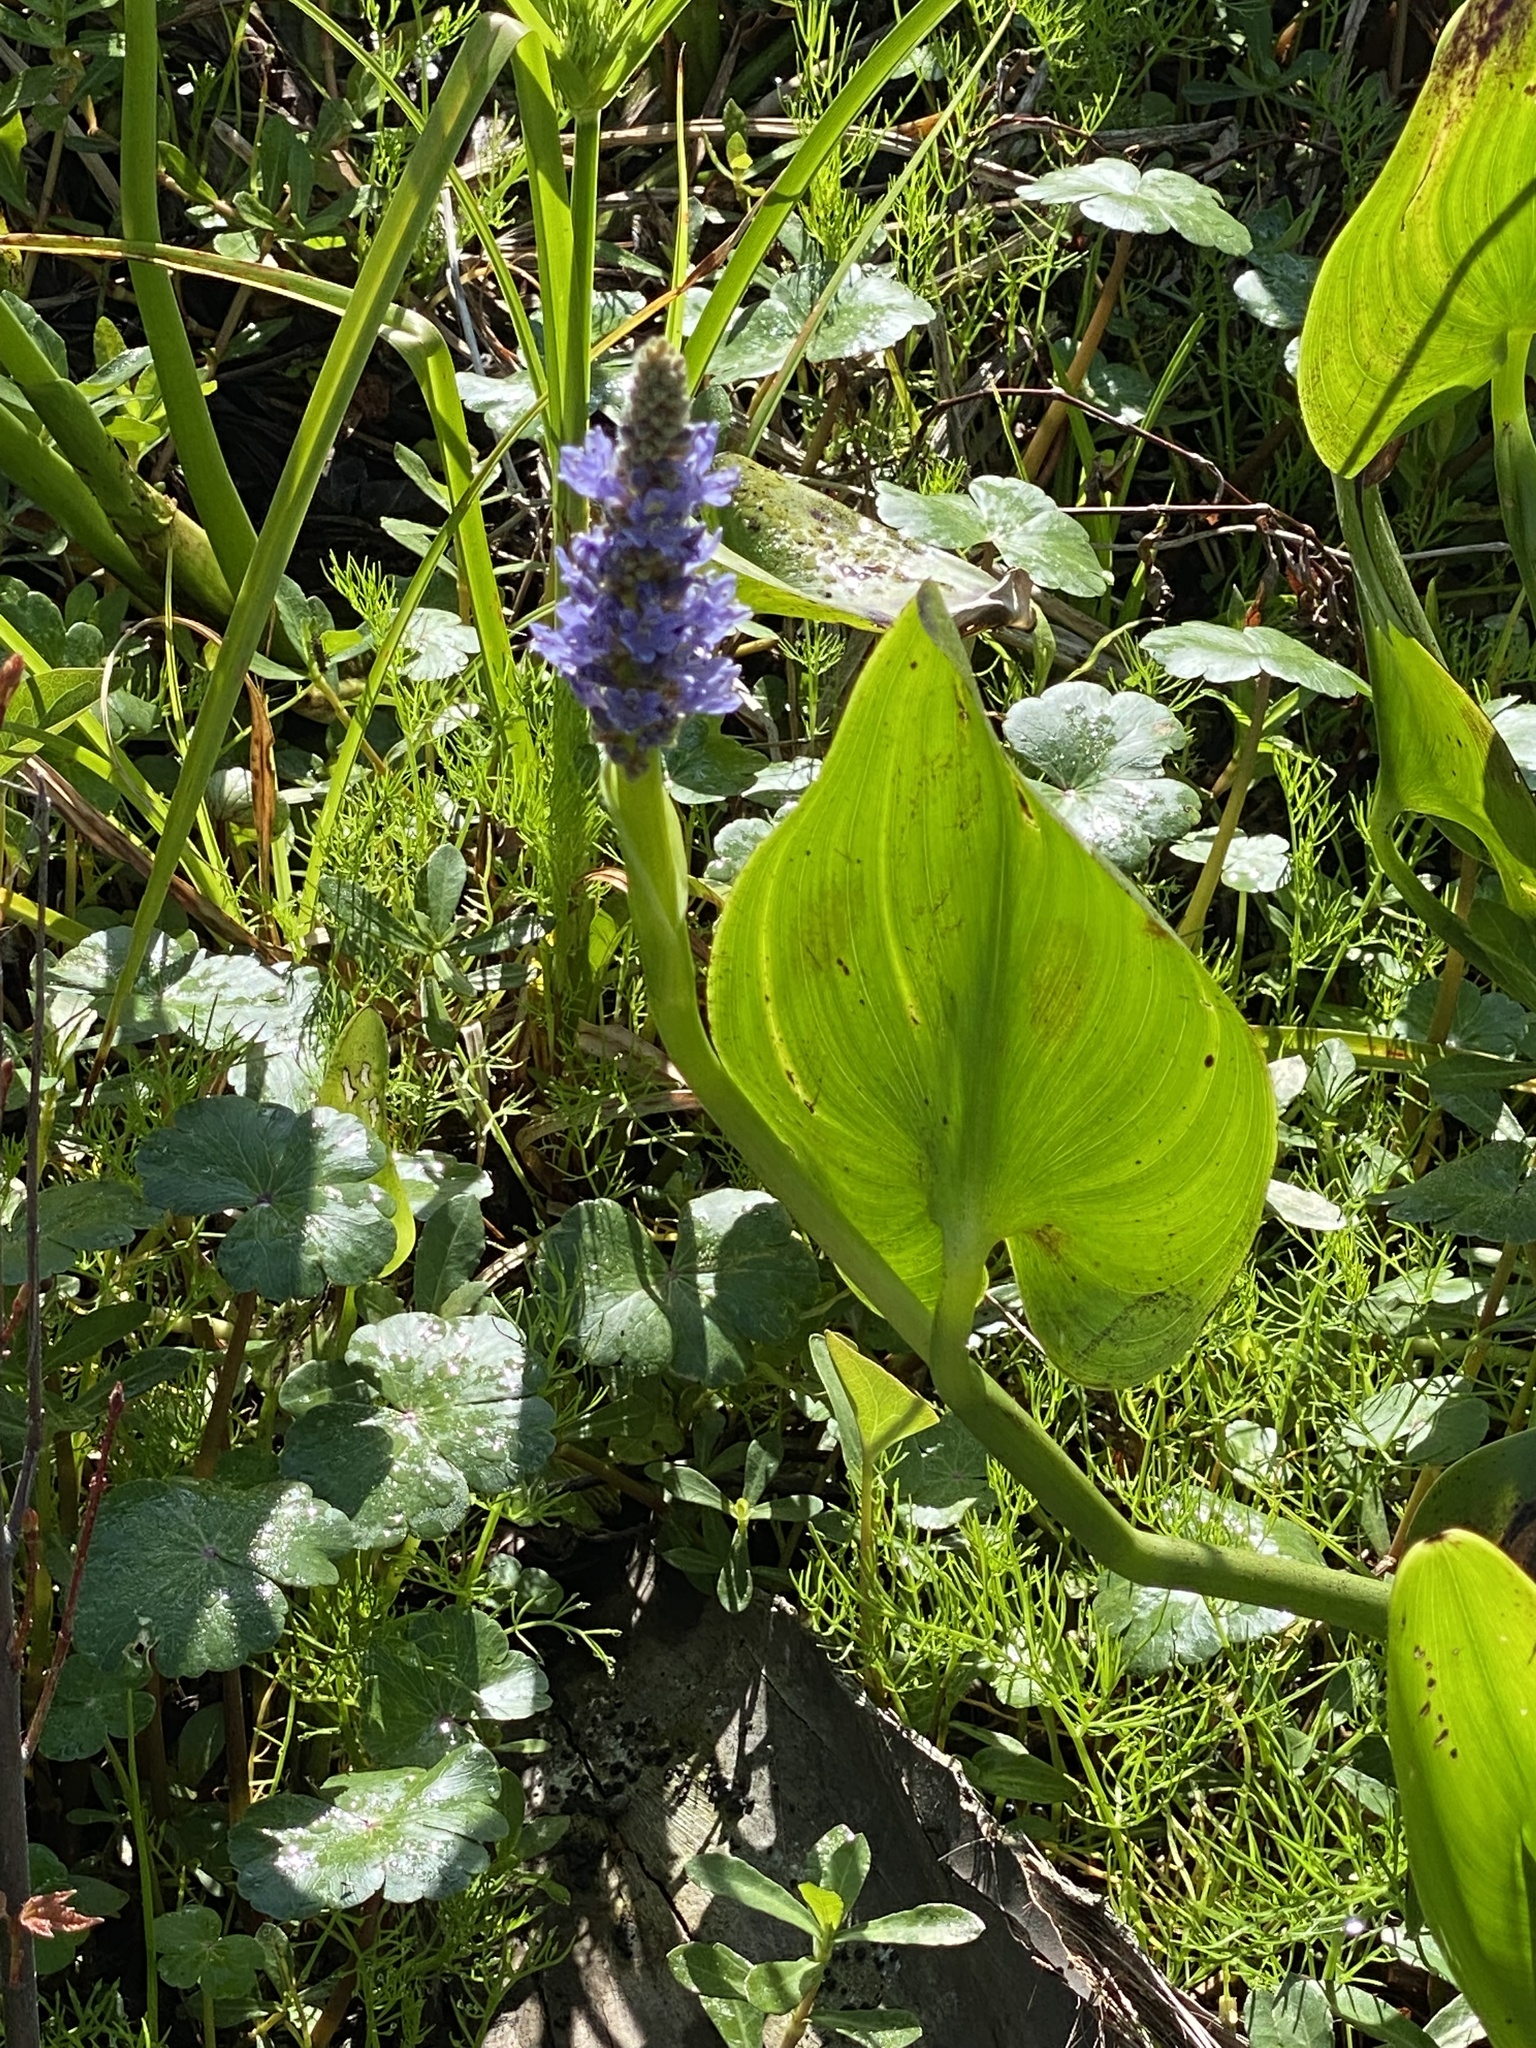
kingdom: Plantae
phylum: Tracheophyta
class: Liliopsida
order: Commelinales
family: Pontederiaceae
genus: Pontederia
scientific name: Pontederia cordata
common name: Pickerelweed
